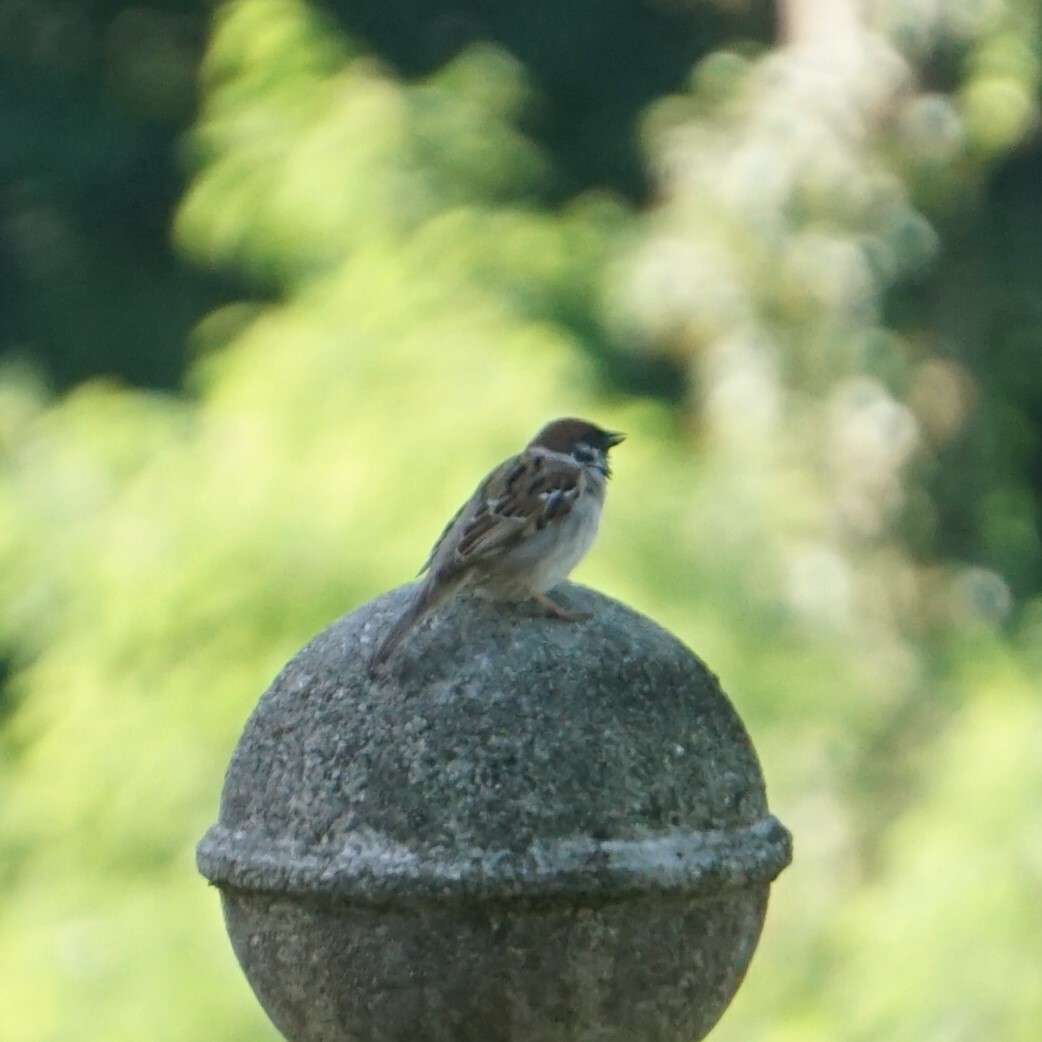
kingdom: Animalia
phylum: Chordata
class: Aves
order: Passeriformes
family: Passeridae
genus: Passer
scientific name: Passer montanus
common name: Eurasian tree sparrow
